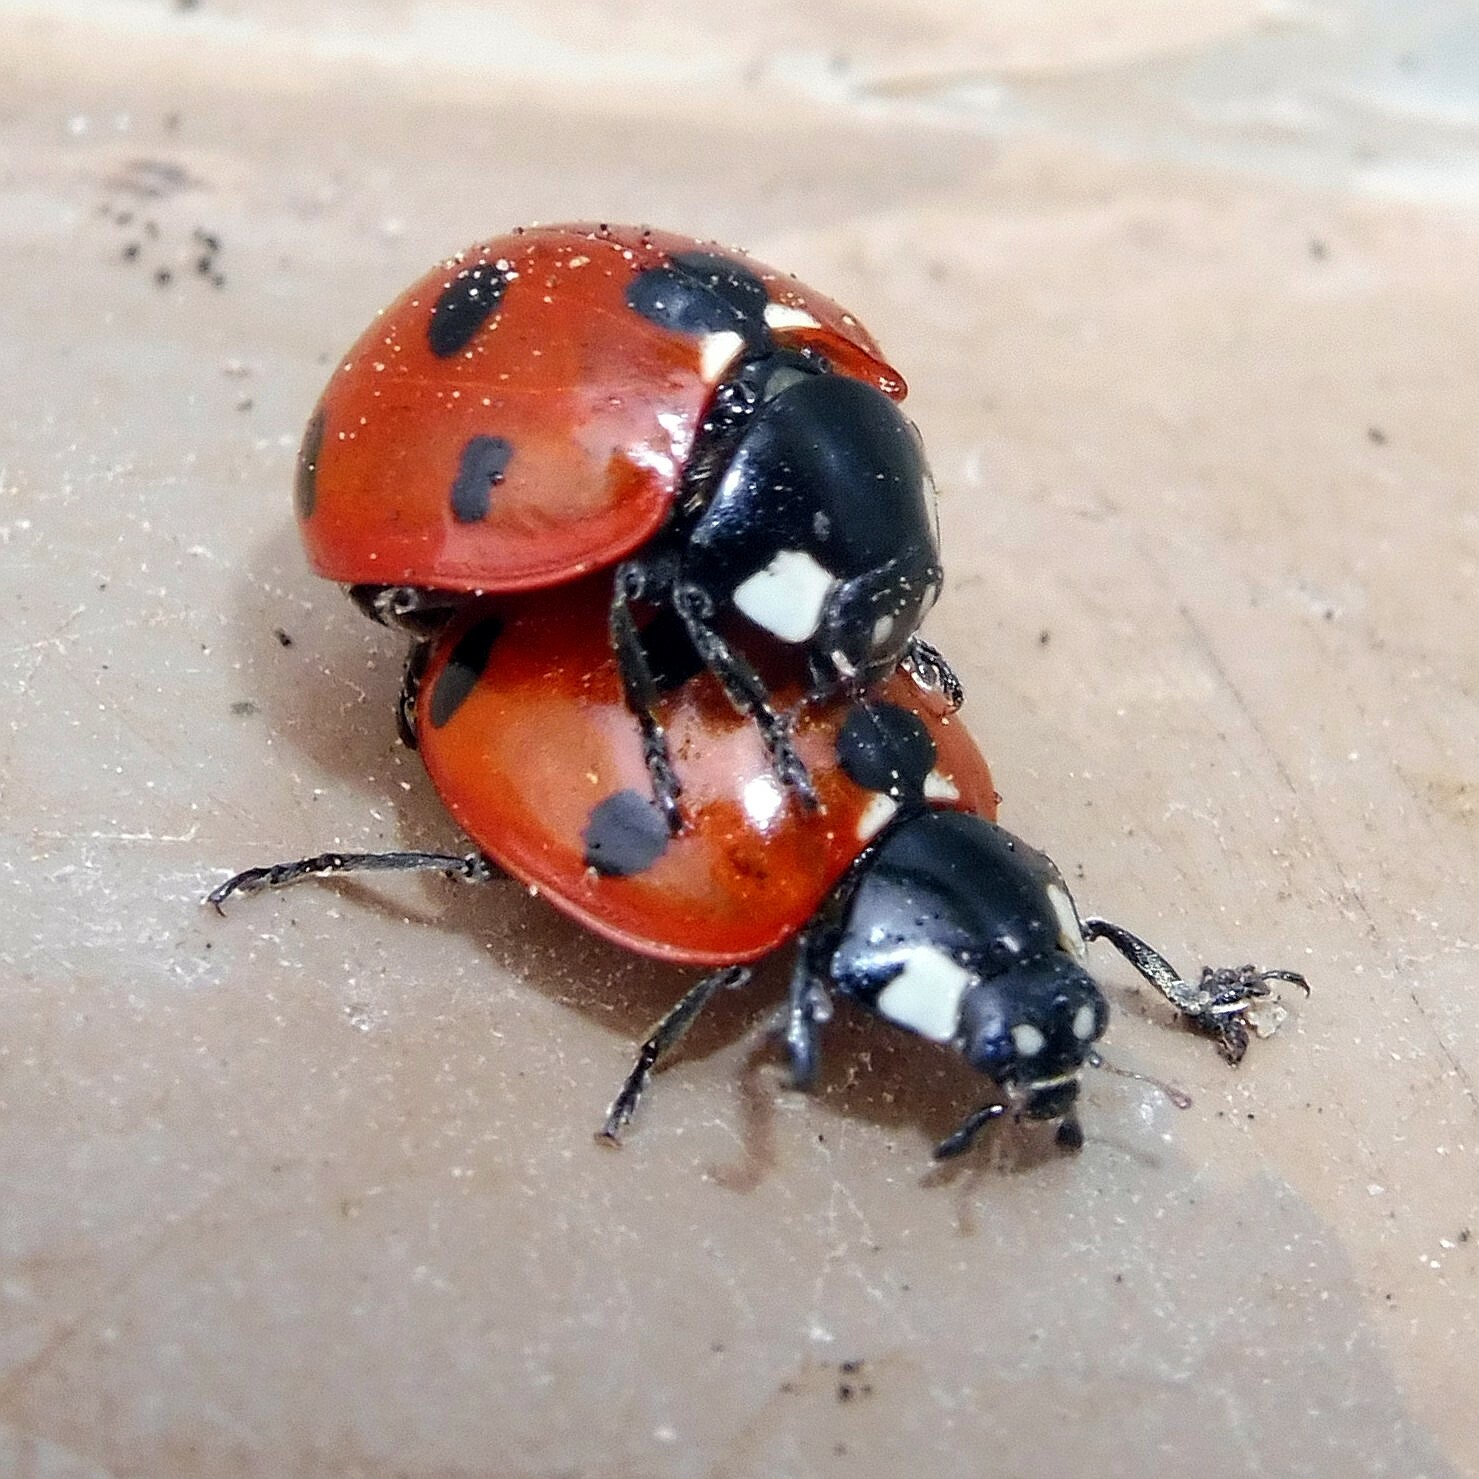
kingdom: Animalia
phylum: Arthropoda
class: Insecta
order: Coleoptera
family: Coccinellidae
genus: Coccinella
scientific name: Coccinella septempunctata
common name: Sevenspotted lady beetle
